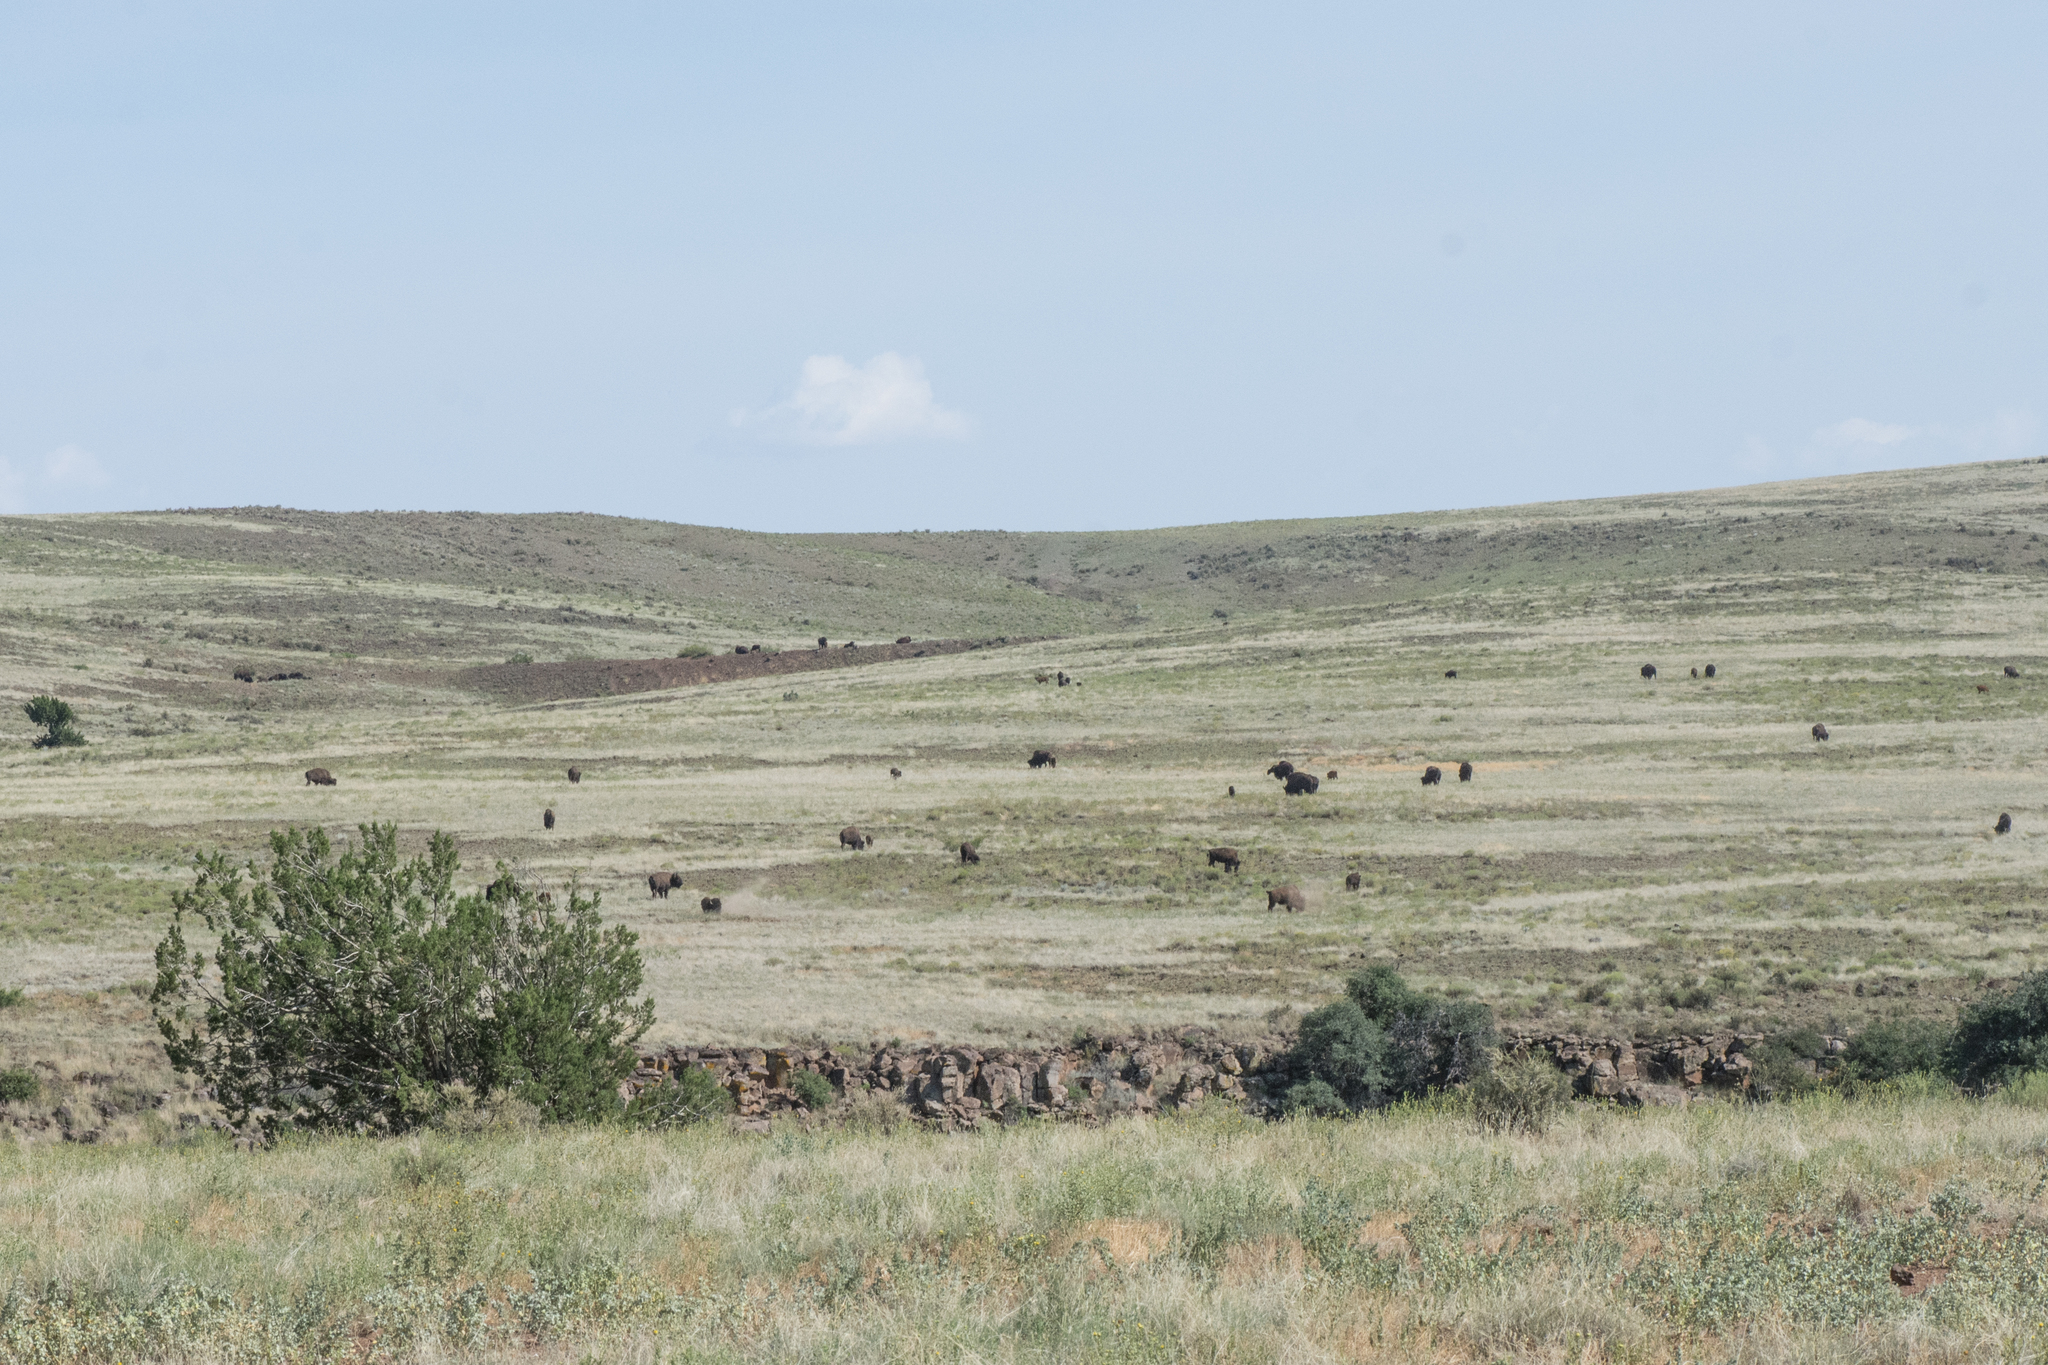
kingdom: Animalia
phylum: Chordata
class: Mammalia
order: Artiodactyla
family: Bovidae
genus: Bison
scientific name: Bison bison
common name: American bison
